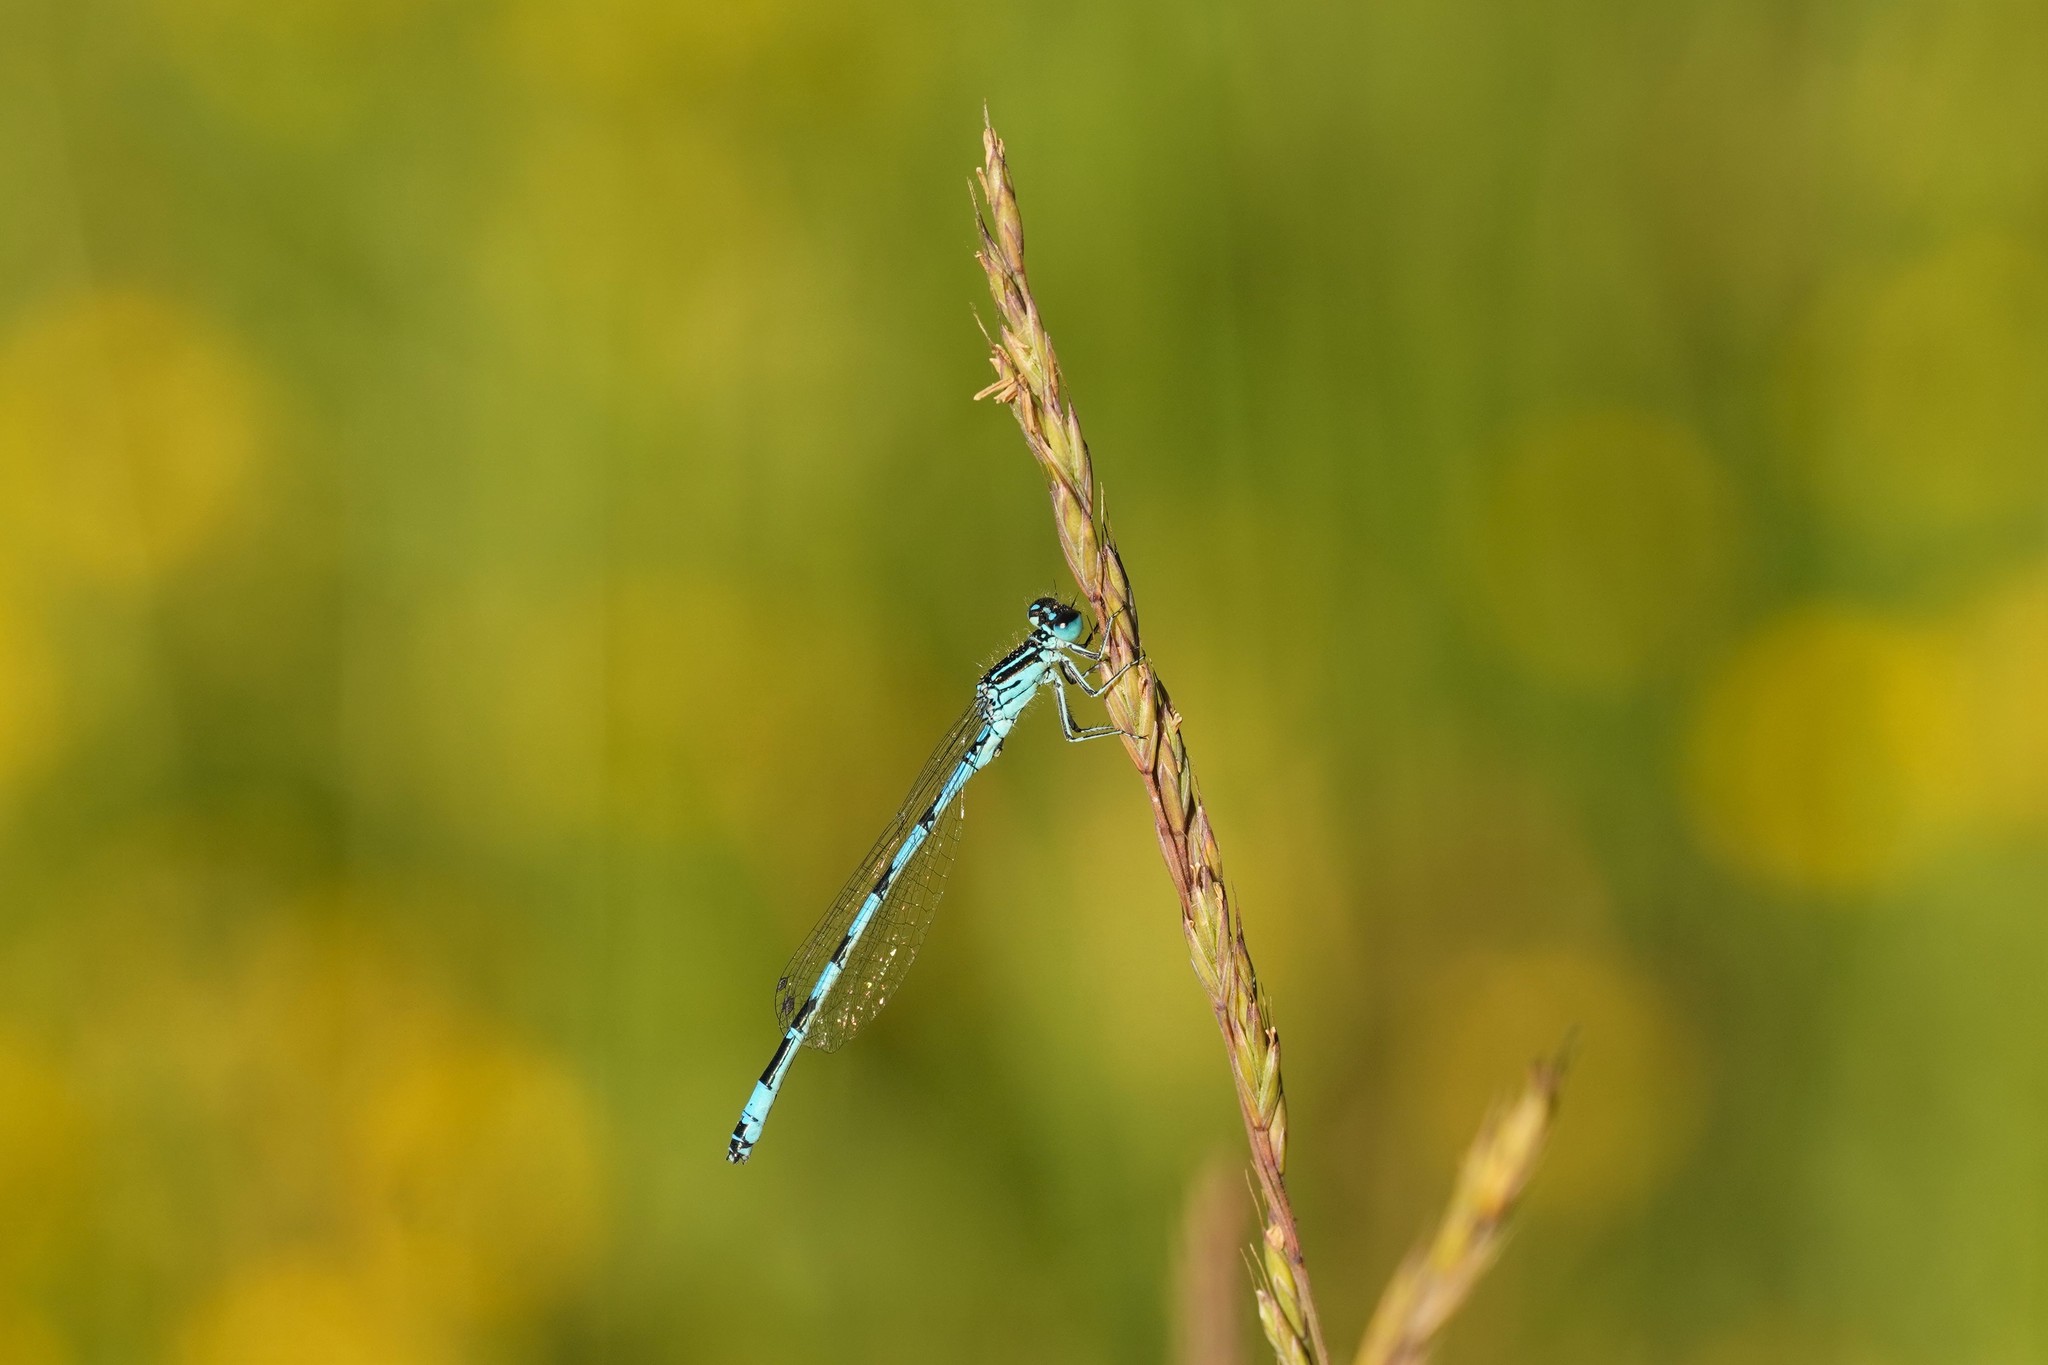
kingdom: Animalia
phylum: Arthropoda
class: Insecta
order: Odonata
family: Coenagrionidae
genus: Coenagrion
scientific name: Coenagrion mercuriale
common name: Southern damselfly
